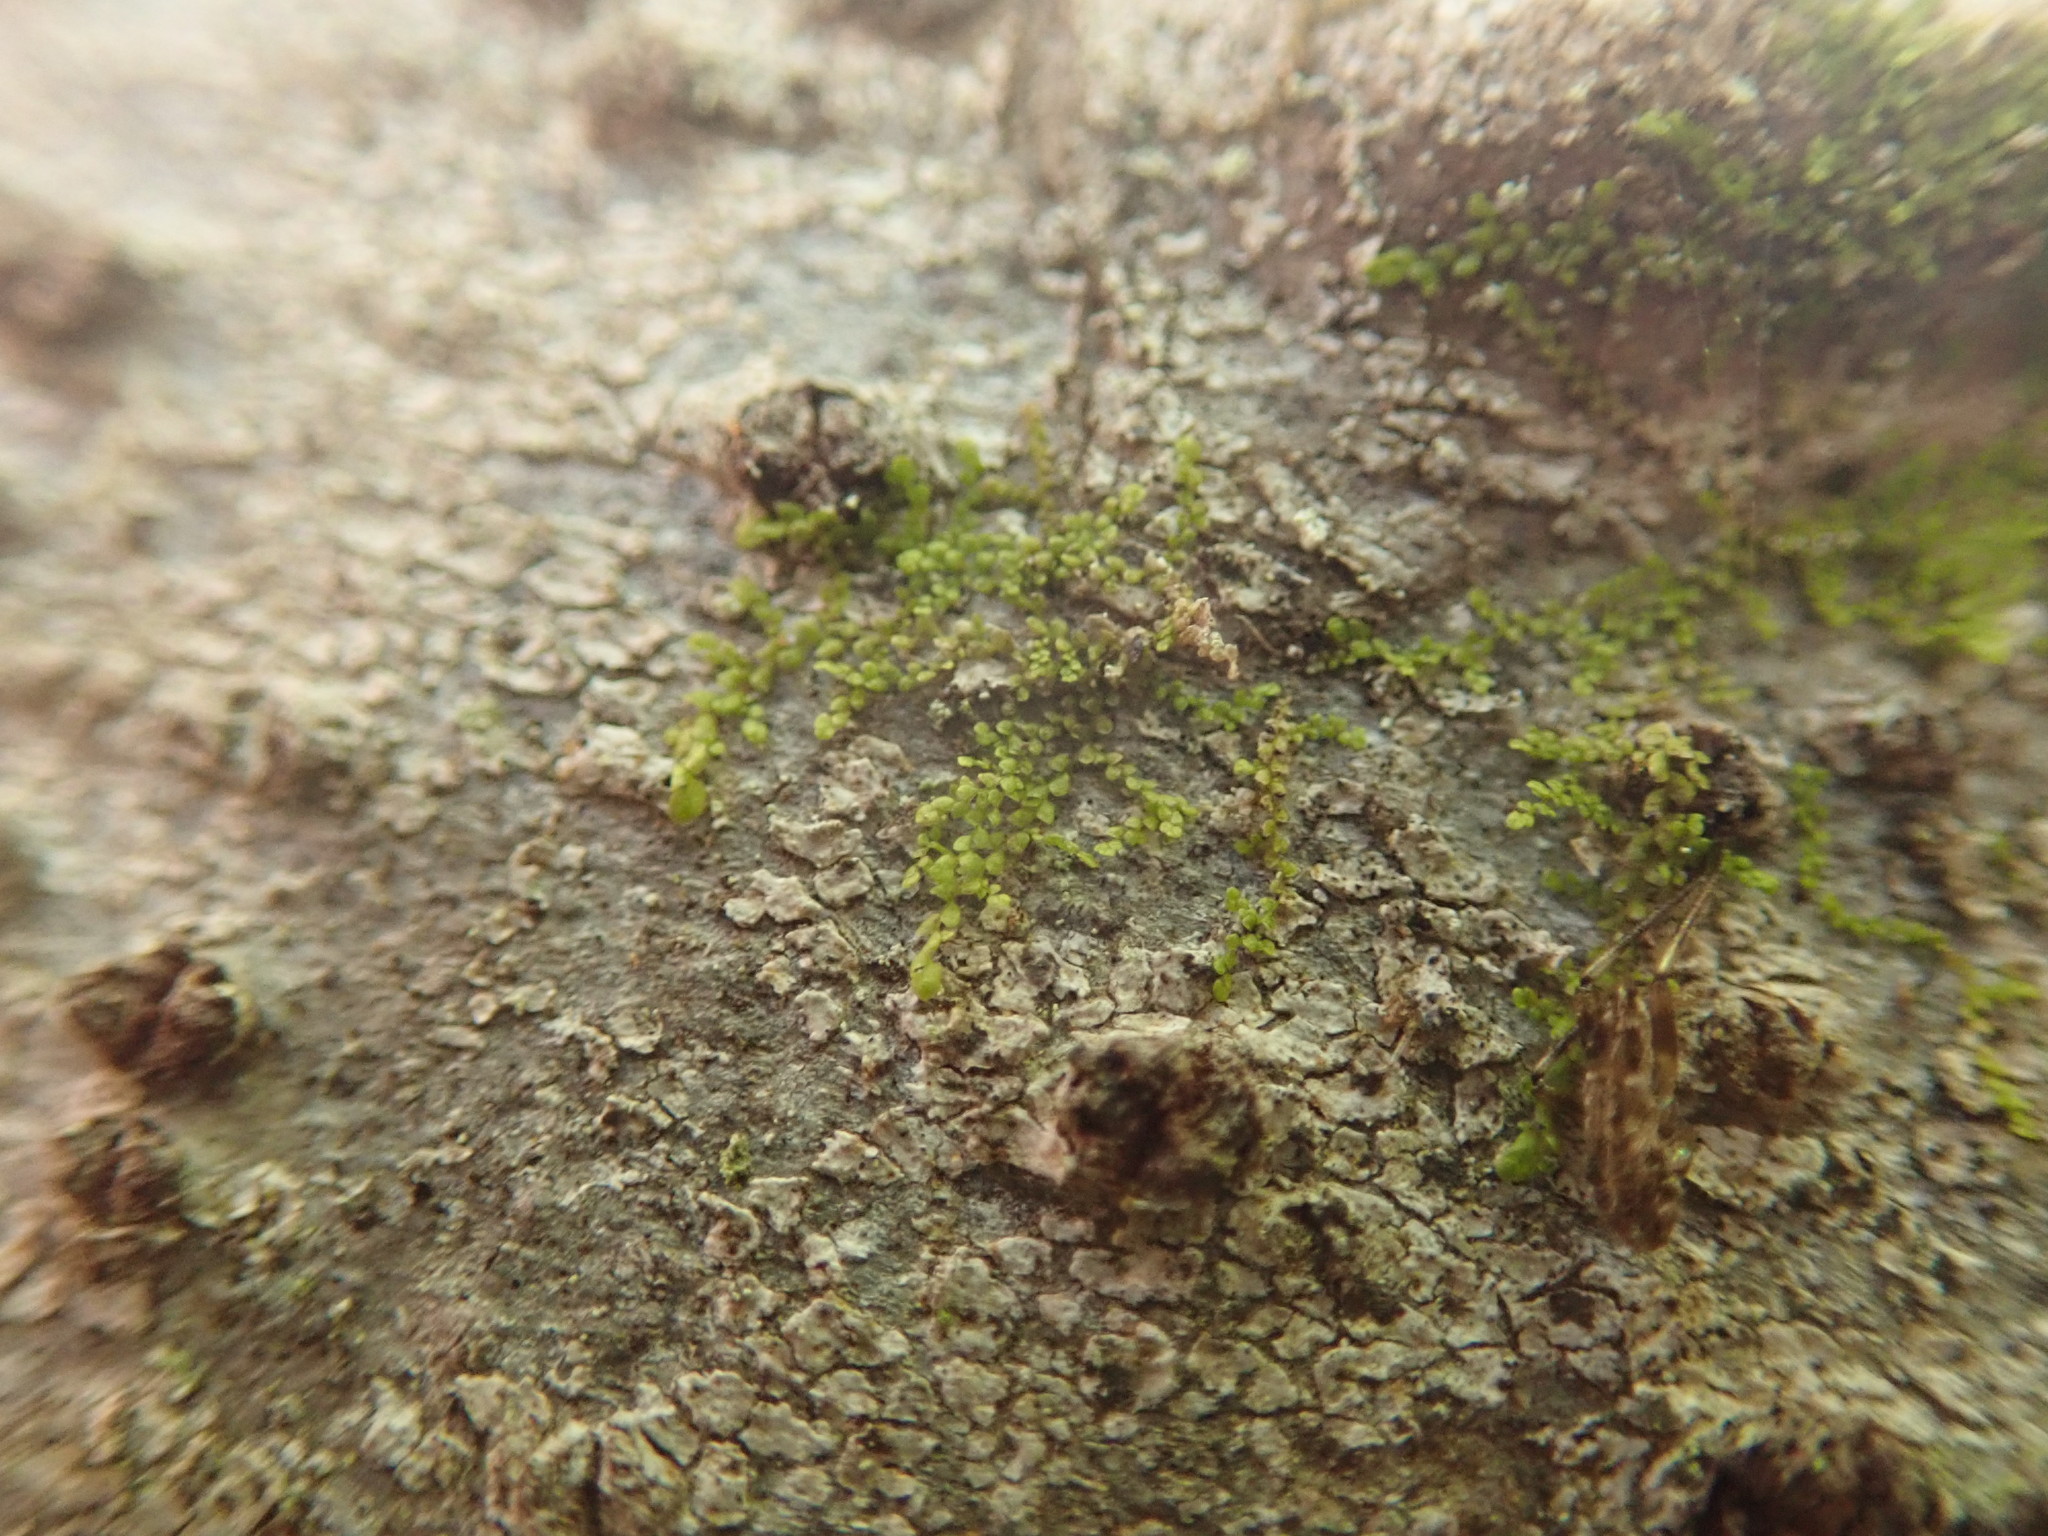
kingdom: Plantae
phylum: Marchantiophyta
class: Jungermanniopsida
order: Porellales
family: Radulaceae
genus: Radula
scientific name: Radula bolanderi
